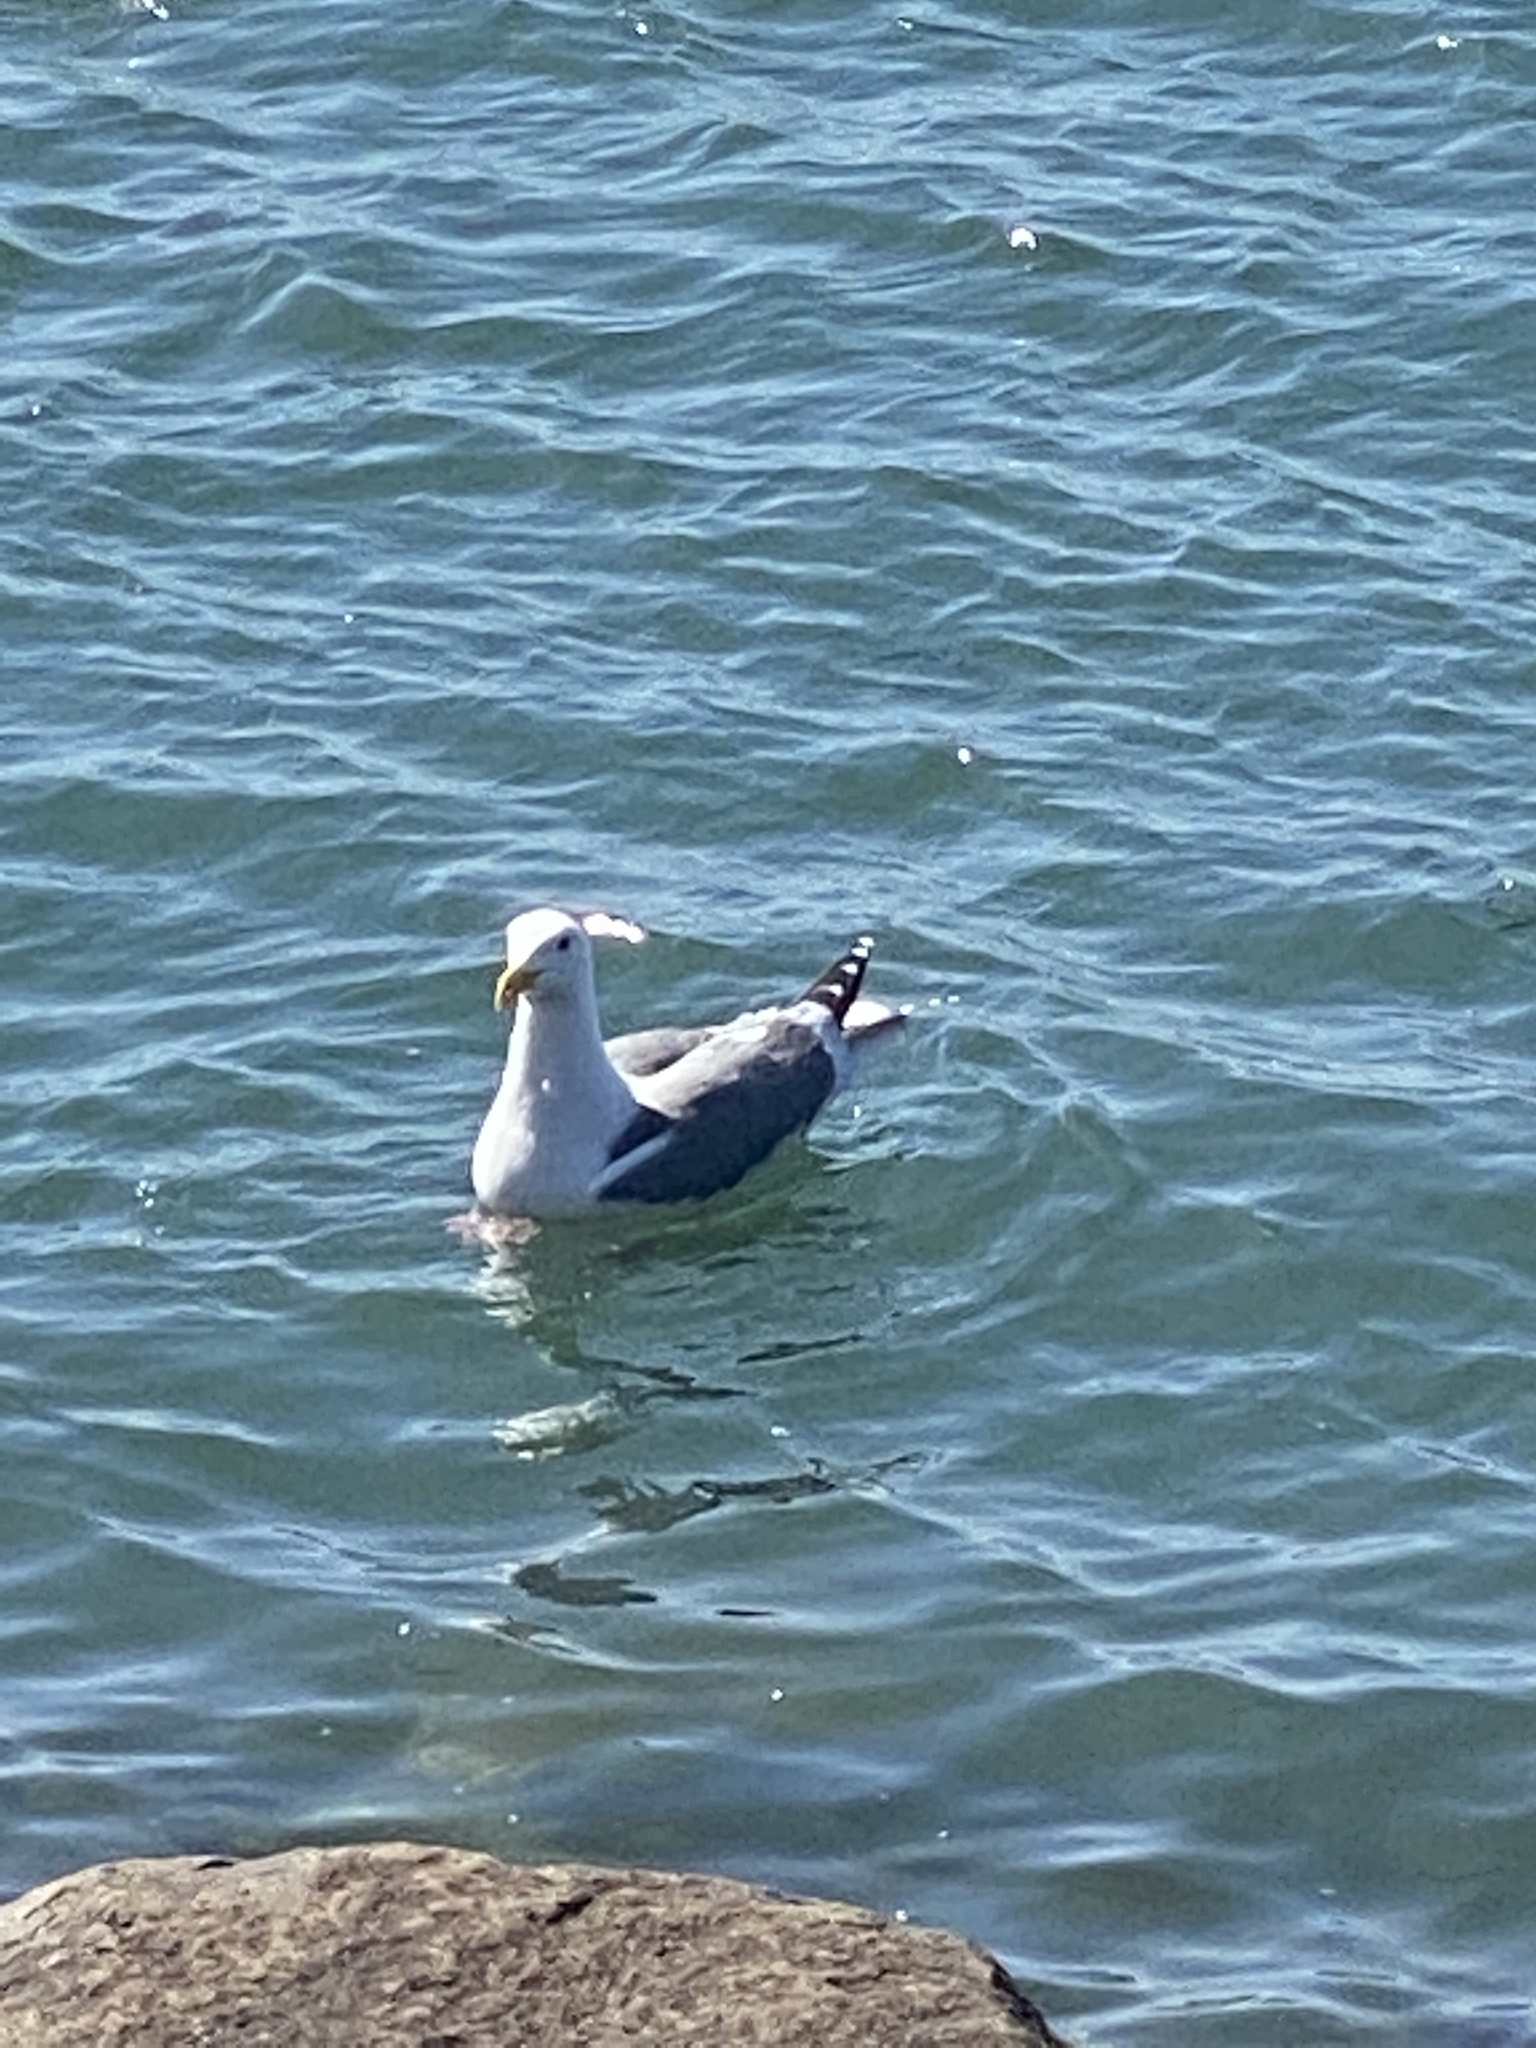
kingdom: Animalia
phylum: Chordata
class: Aves
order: Charadriiformes
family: Laridae
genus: Larus
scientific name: Larus occidentalis
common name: Western gull
